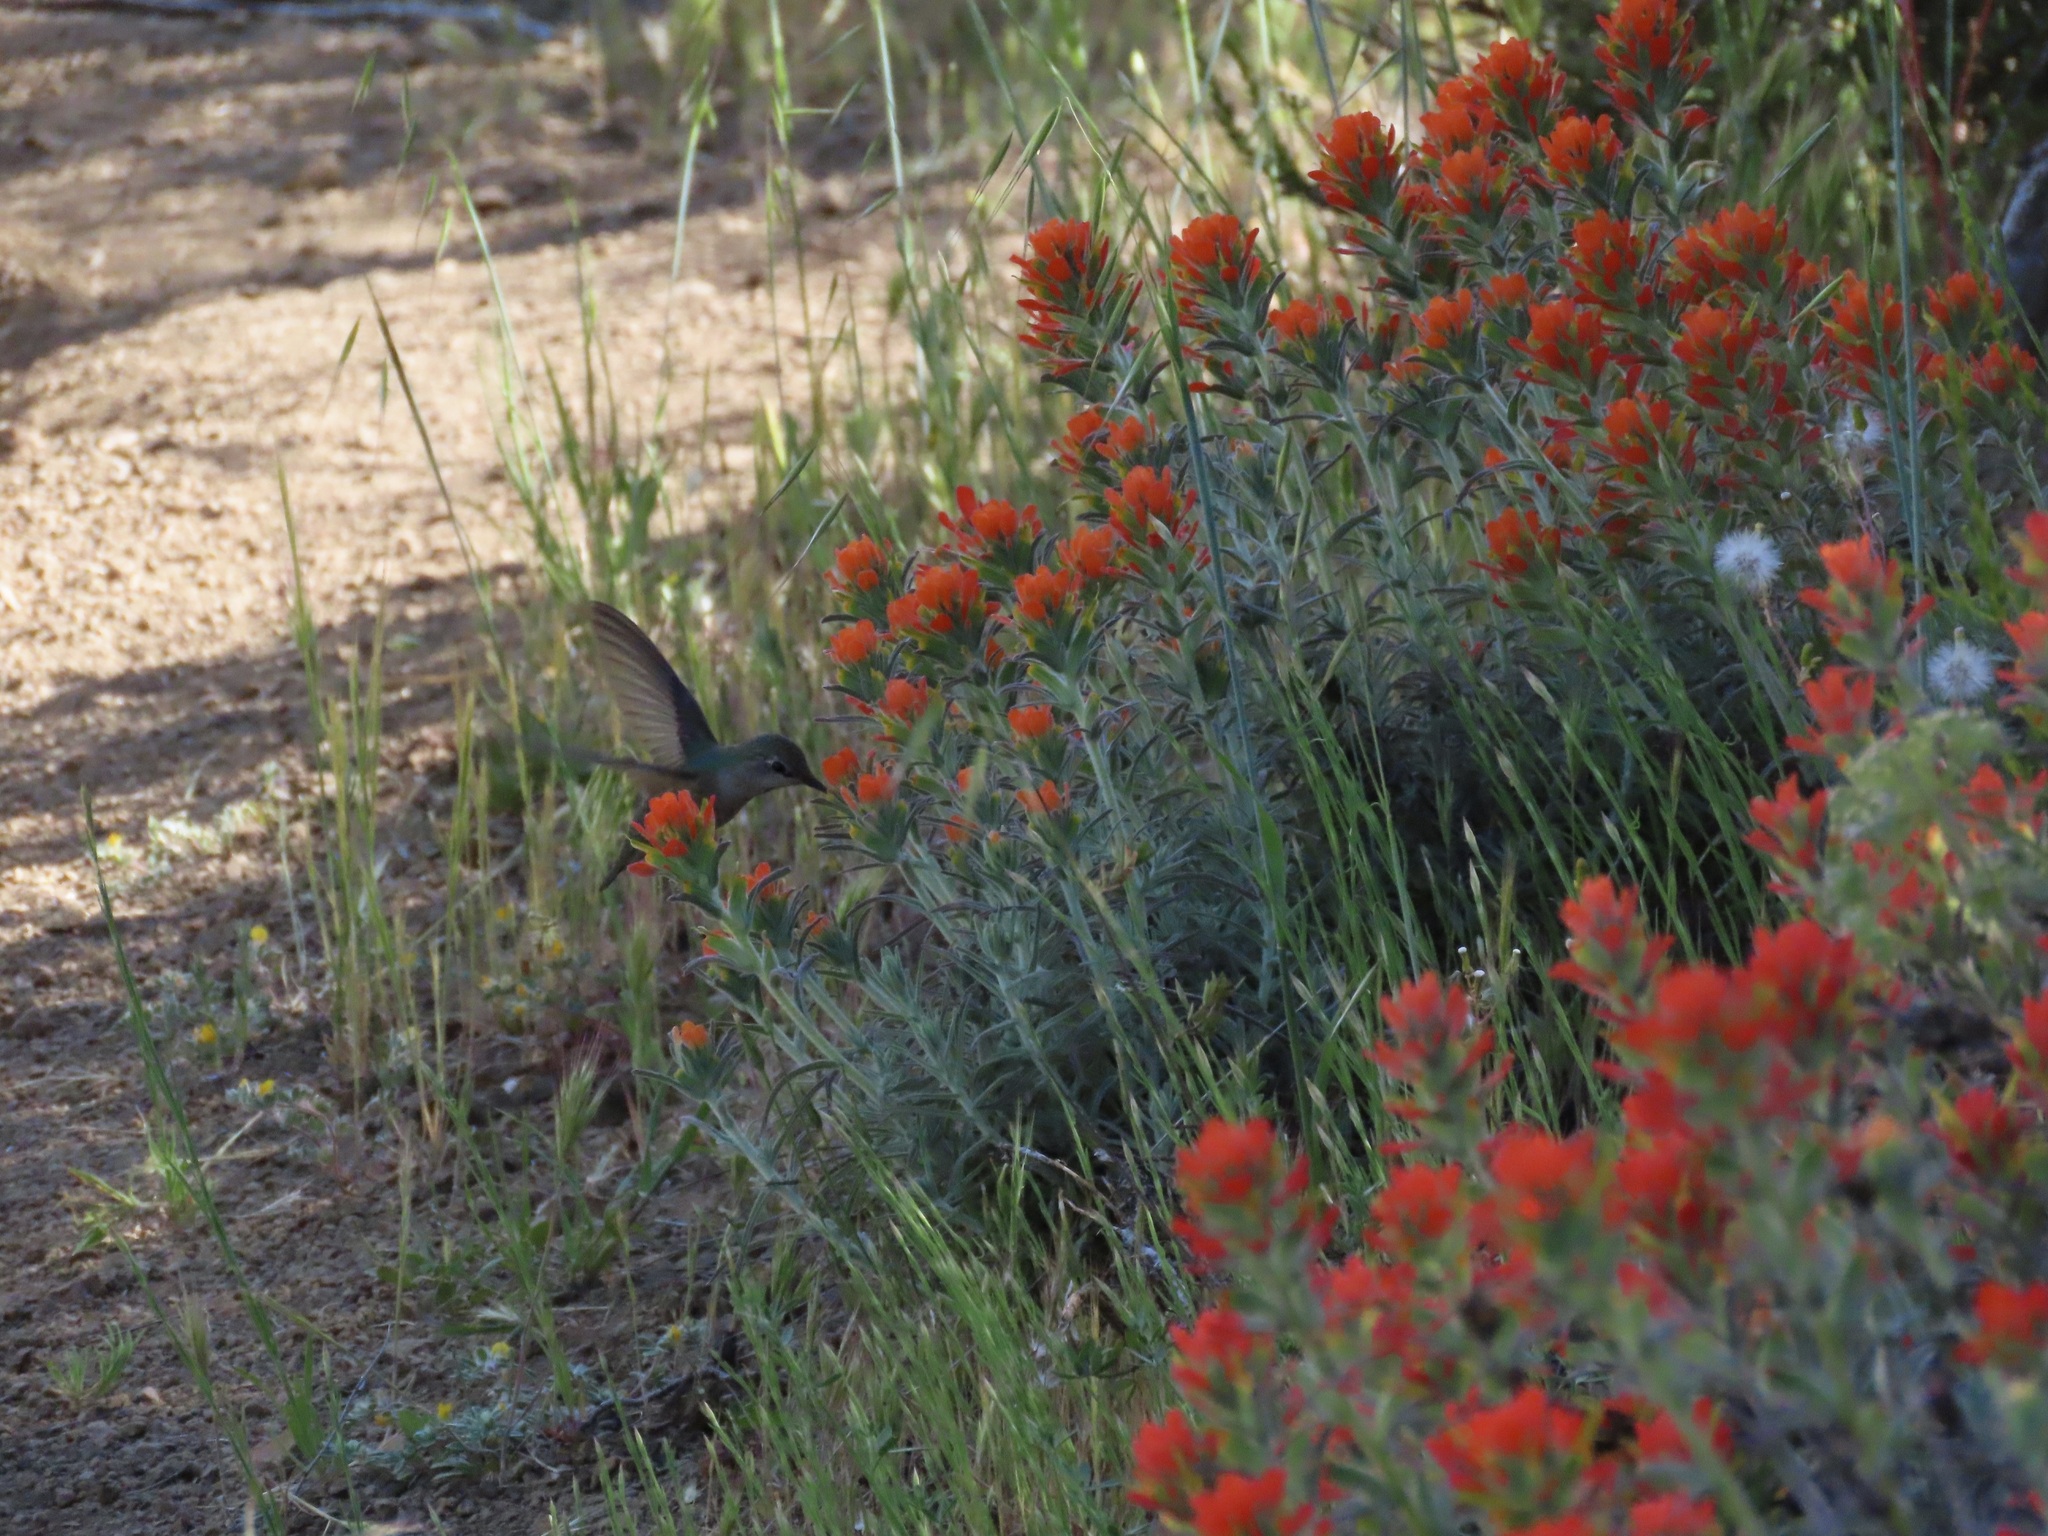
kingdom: Plantae
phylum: Tracheophyta
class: Magnoliopsida
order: Lamiales
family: Orobanchaceae
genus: Castilleja
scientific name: Castilleja foliolosa
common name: Woolly indian paintbrush
